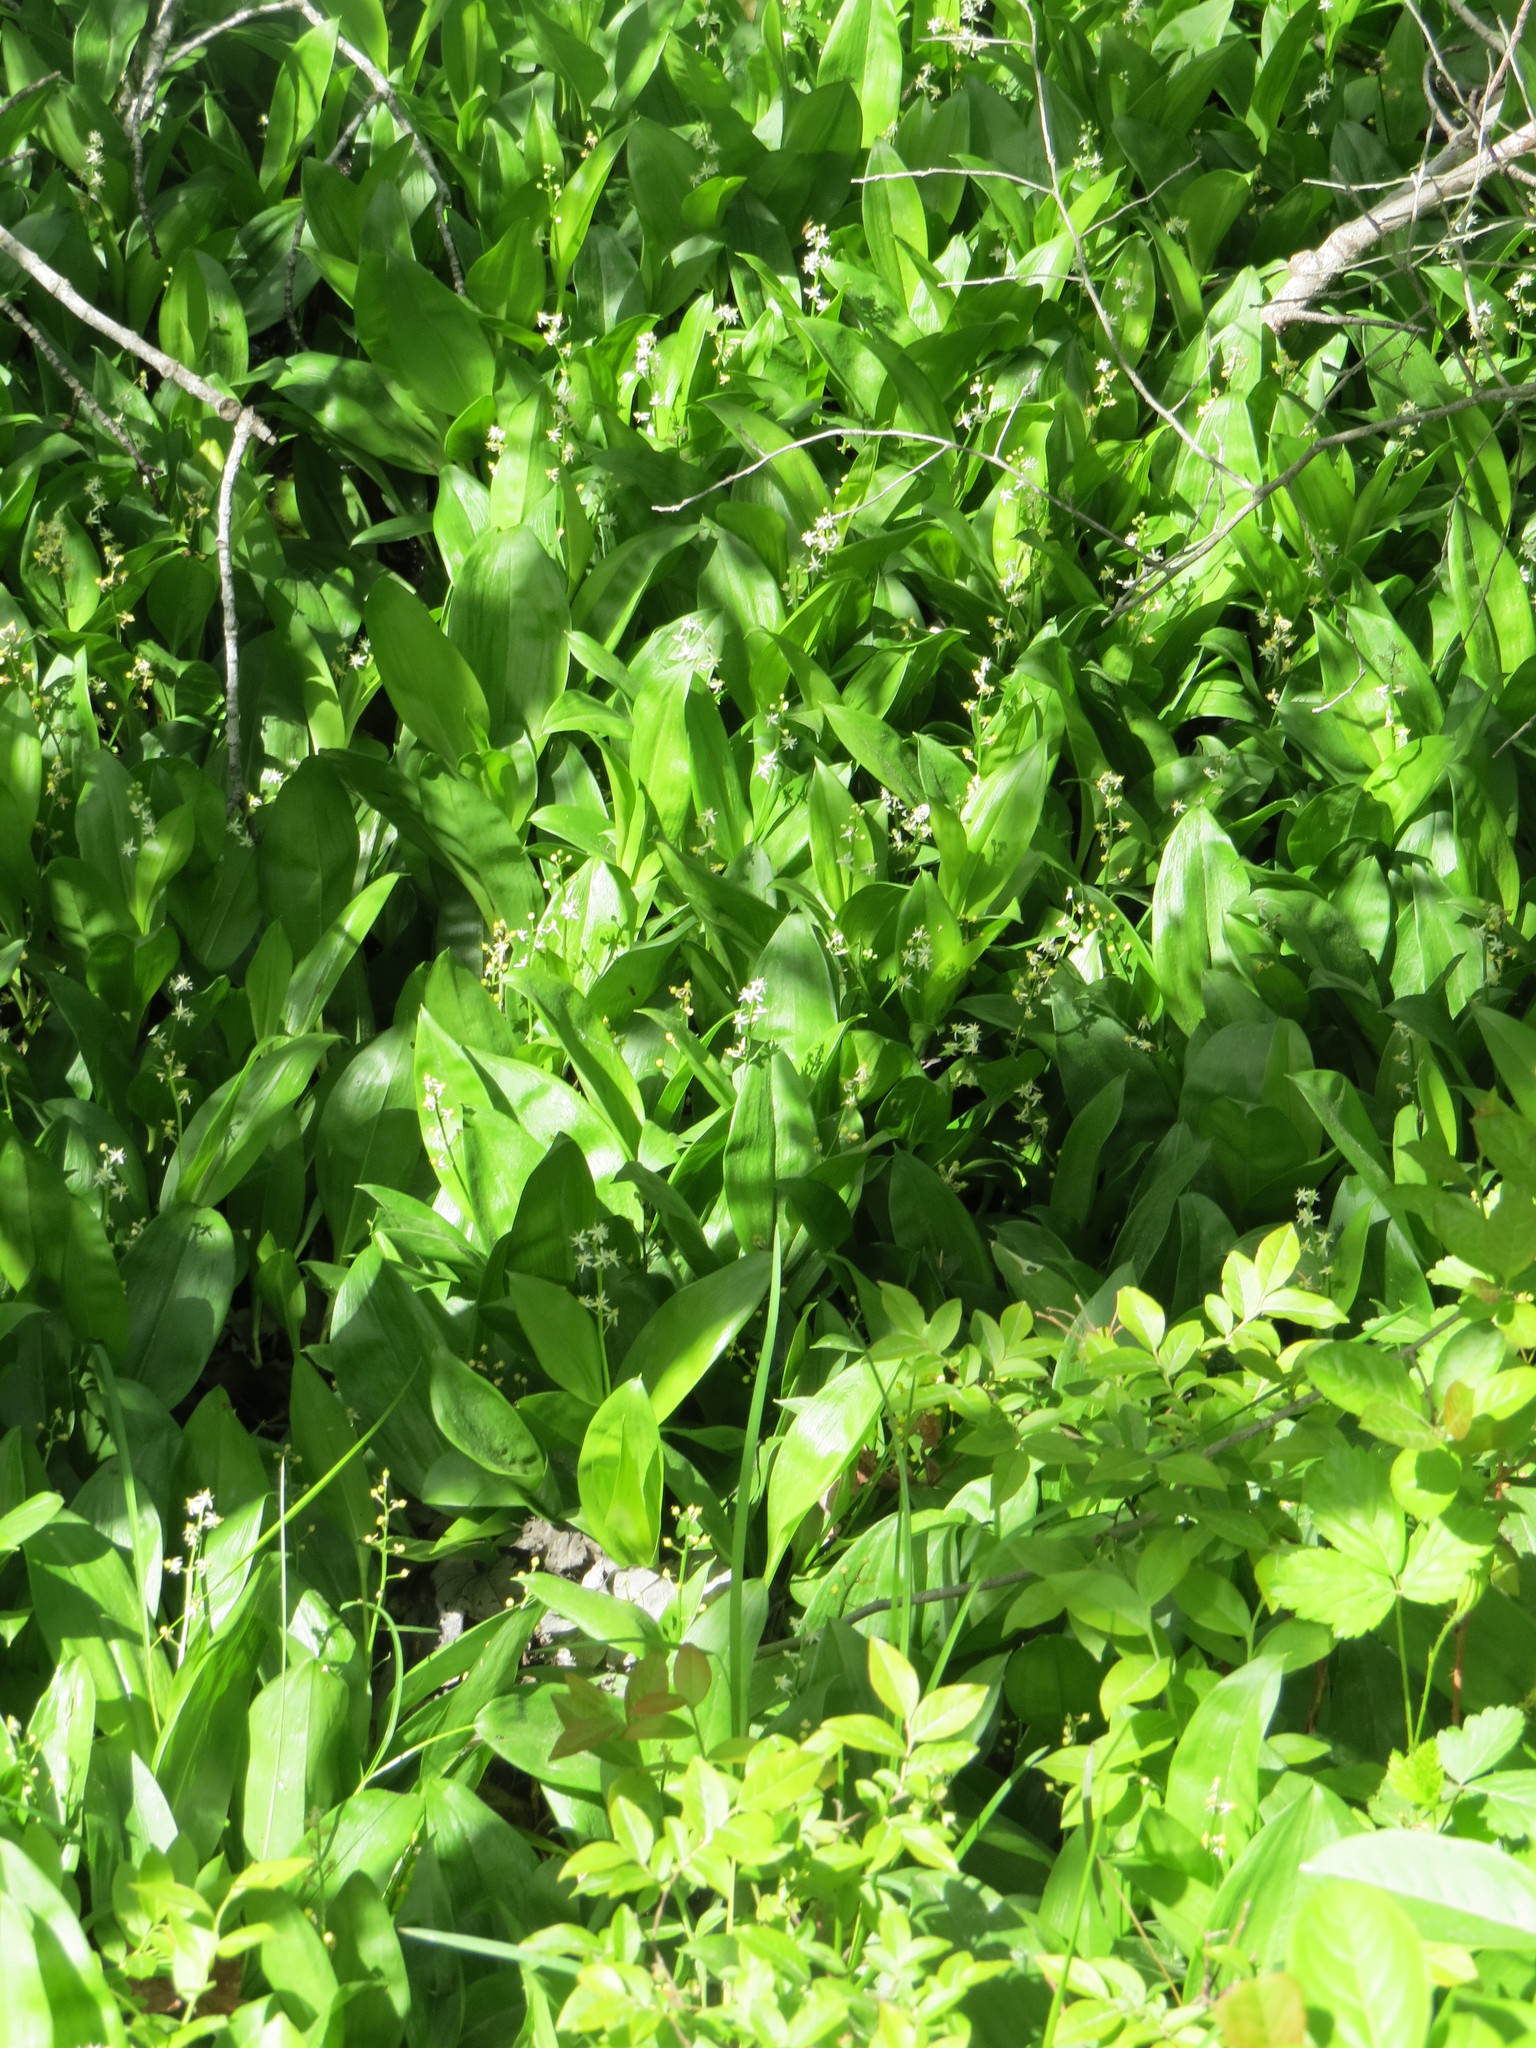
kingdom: Plantae
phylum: Tracheophyta
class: Liliopsida
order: Asparagales
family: Asparagaceae
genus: Maianthemum
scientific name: Maianthemum trifolium
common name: Swamp false solomon's seal
